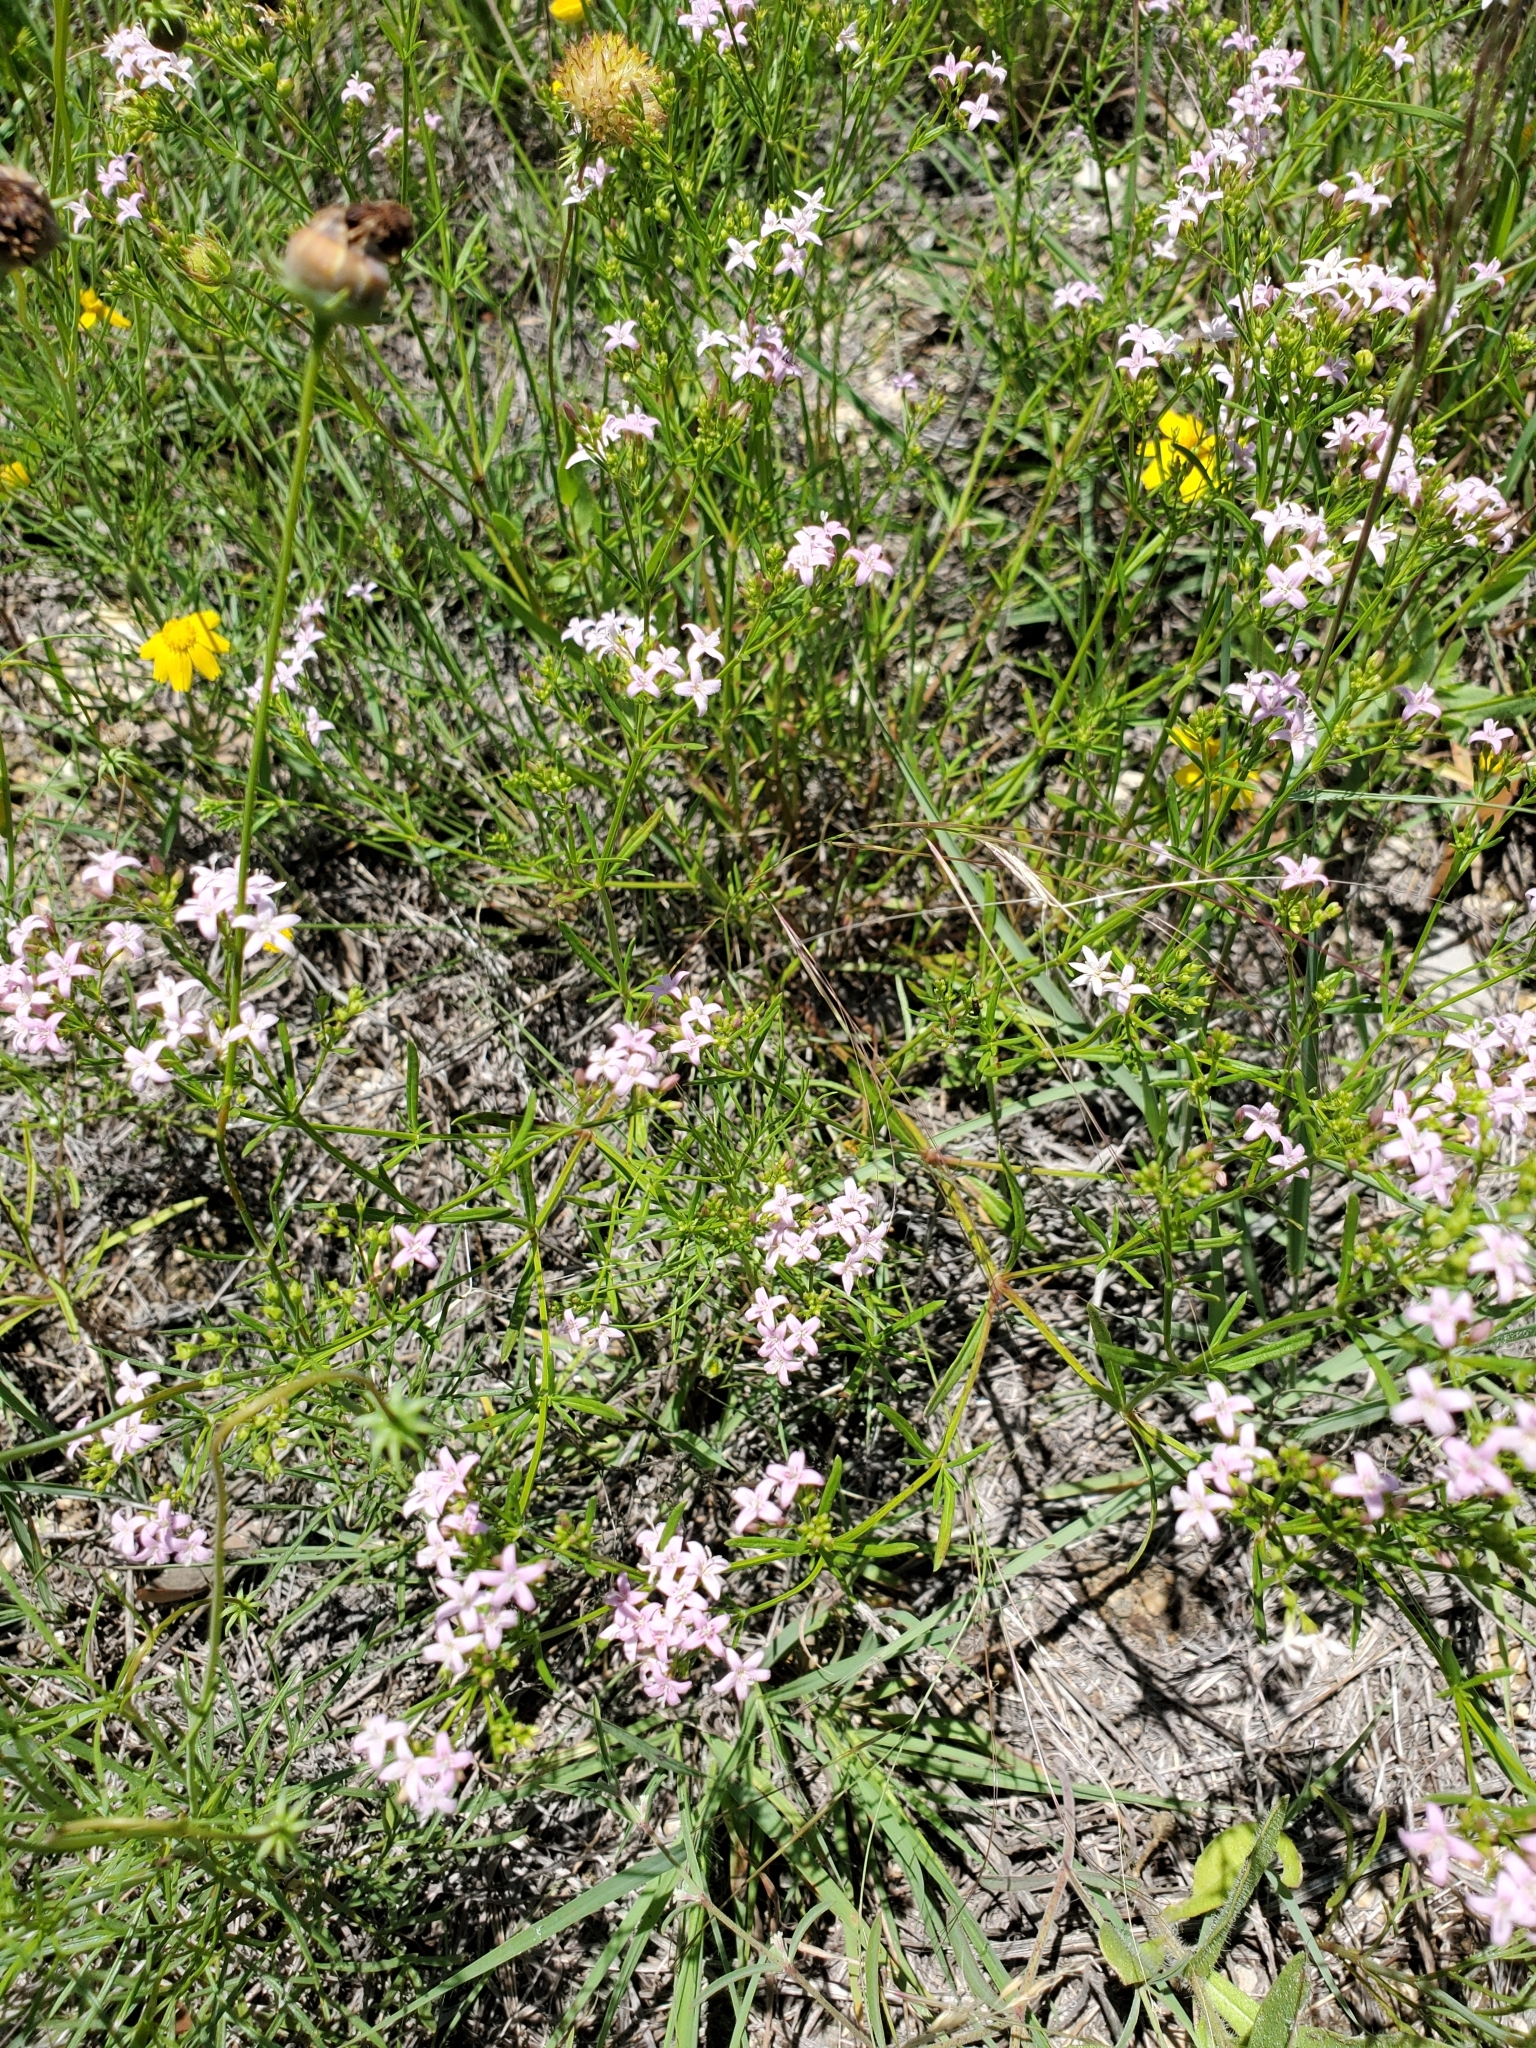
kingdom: Plantae
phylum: Tracheophyta
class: Magnoliopsida
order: Gentianales
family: Rubiaceae
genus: Stenaria
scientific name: Stenaria nigricans
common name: Diamondflowers
